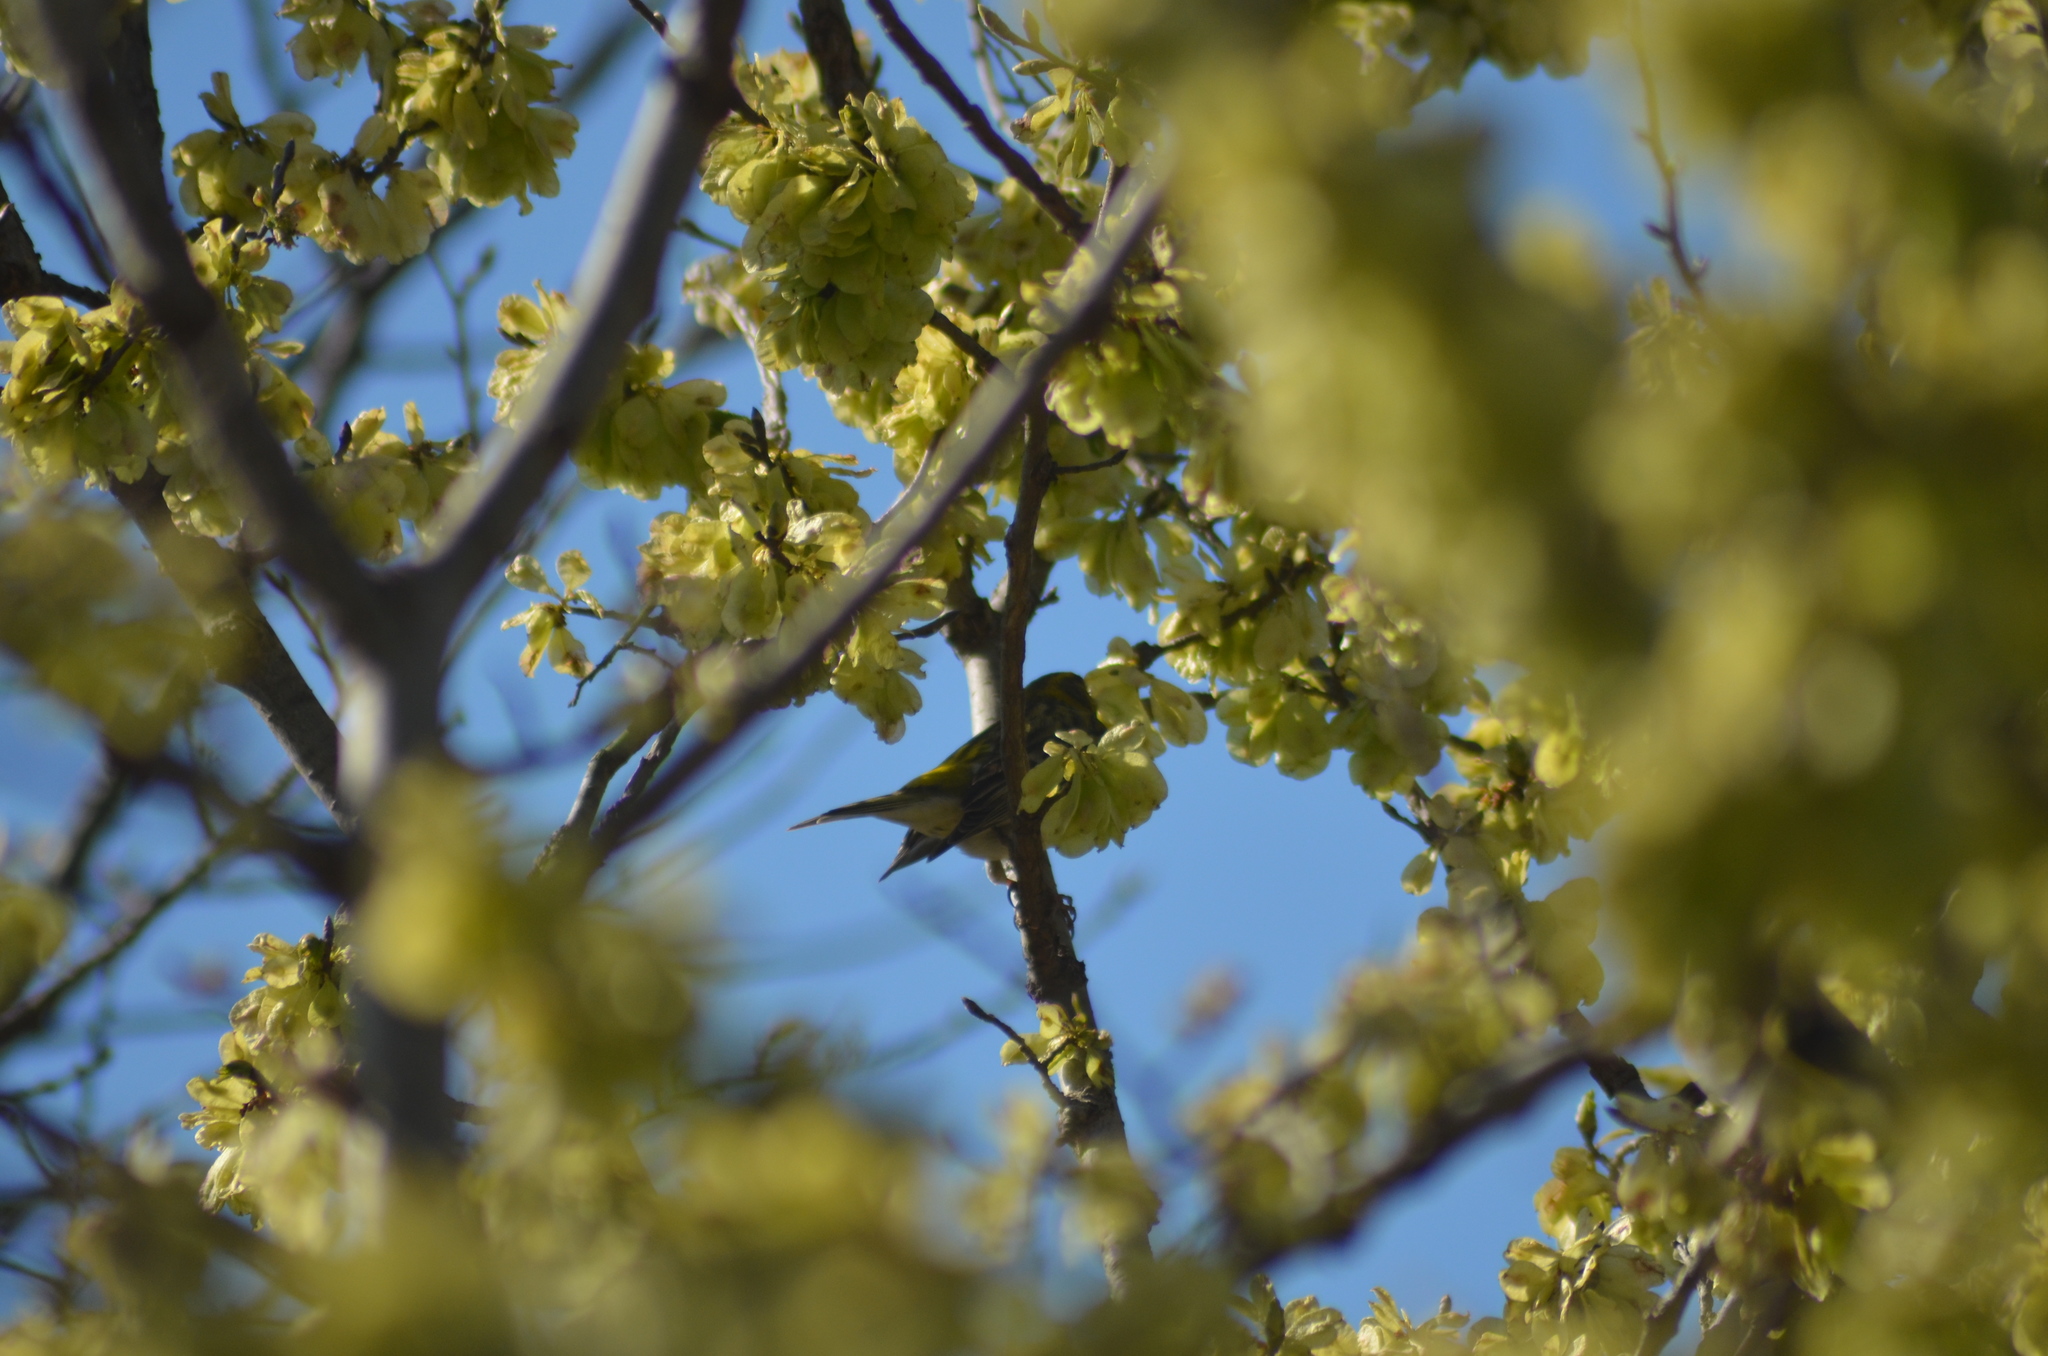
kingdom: Animalia
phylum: Chordata
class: Aves
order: Passeriformes
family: Fringillidae
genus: Serinus
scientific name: Serinus serinus
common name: European serin
